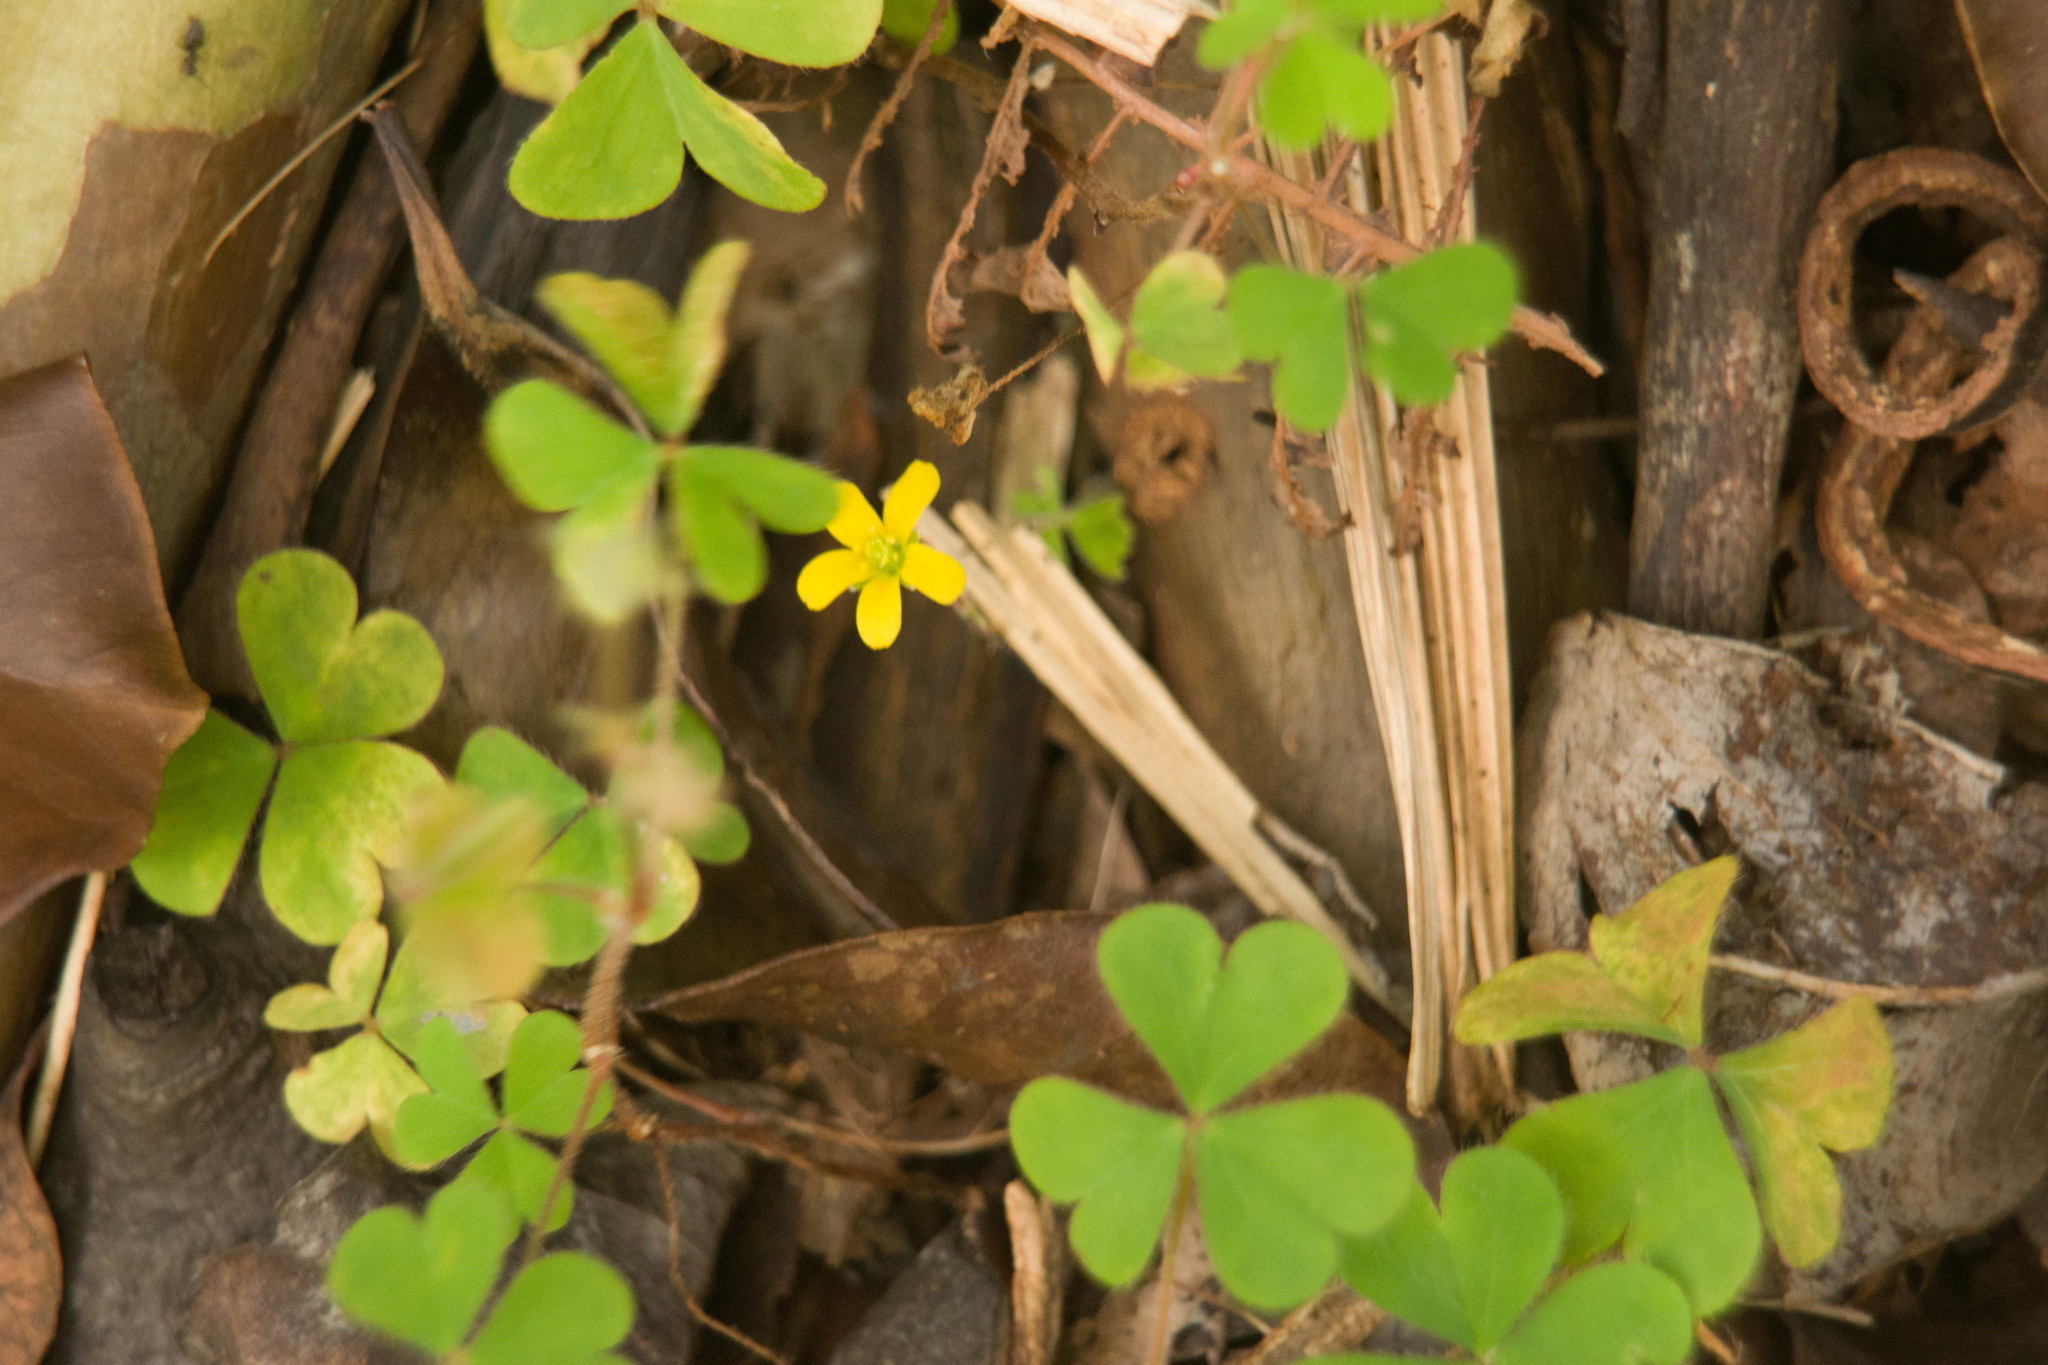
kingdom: Plantae
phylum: Tracheophyta
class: Magnoliopsida
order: Oxalidales
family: Oxalidaceae
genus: Oxalis
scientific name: Oxalis corniculata
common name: Procumbent yellow-sorrel
